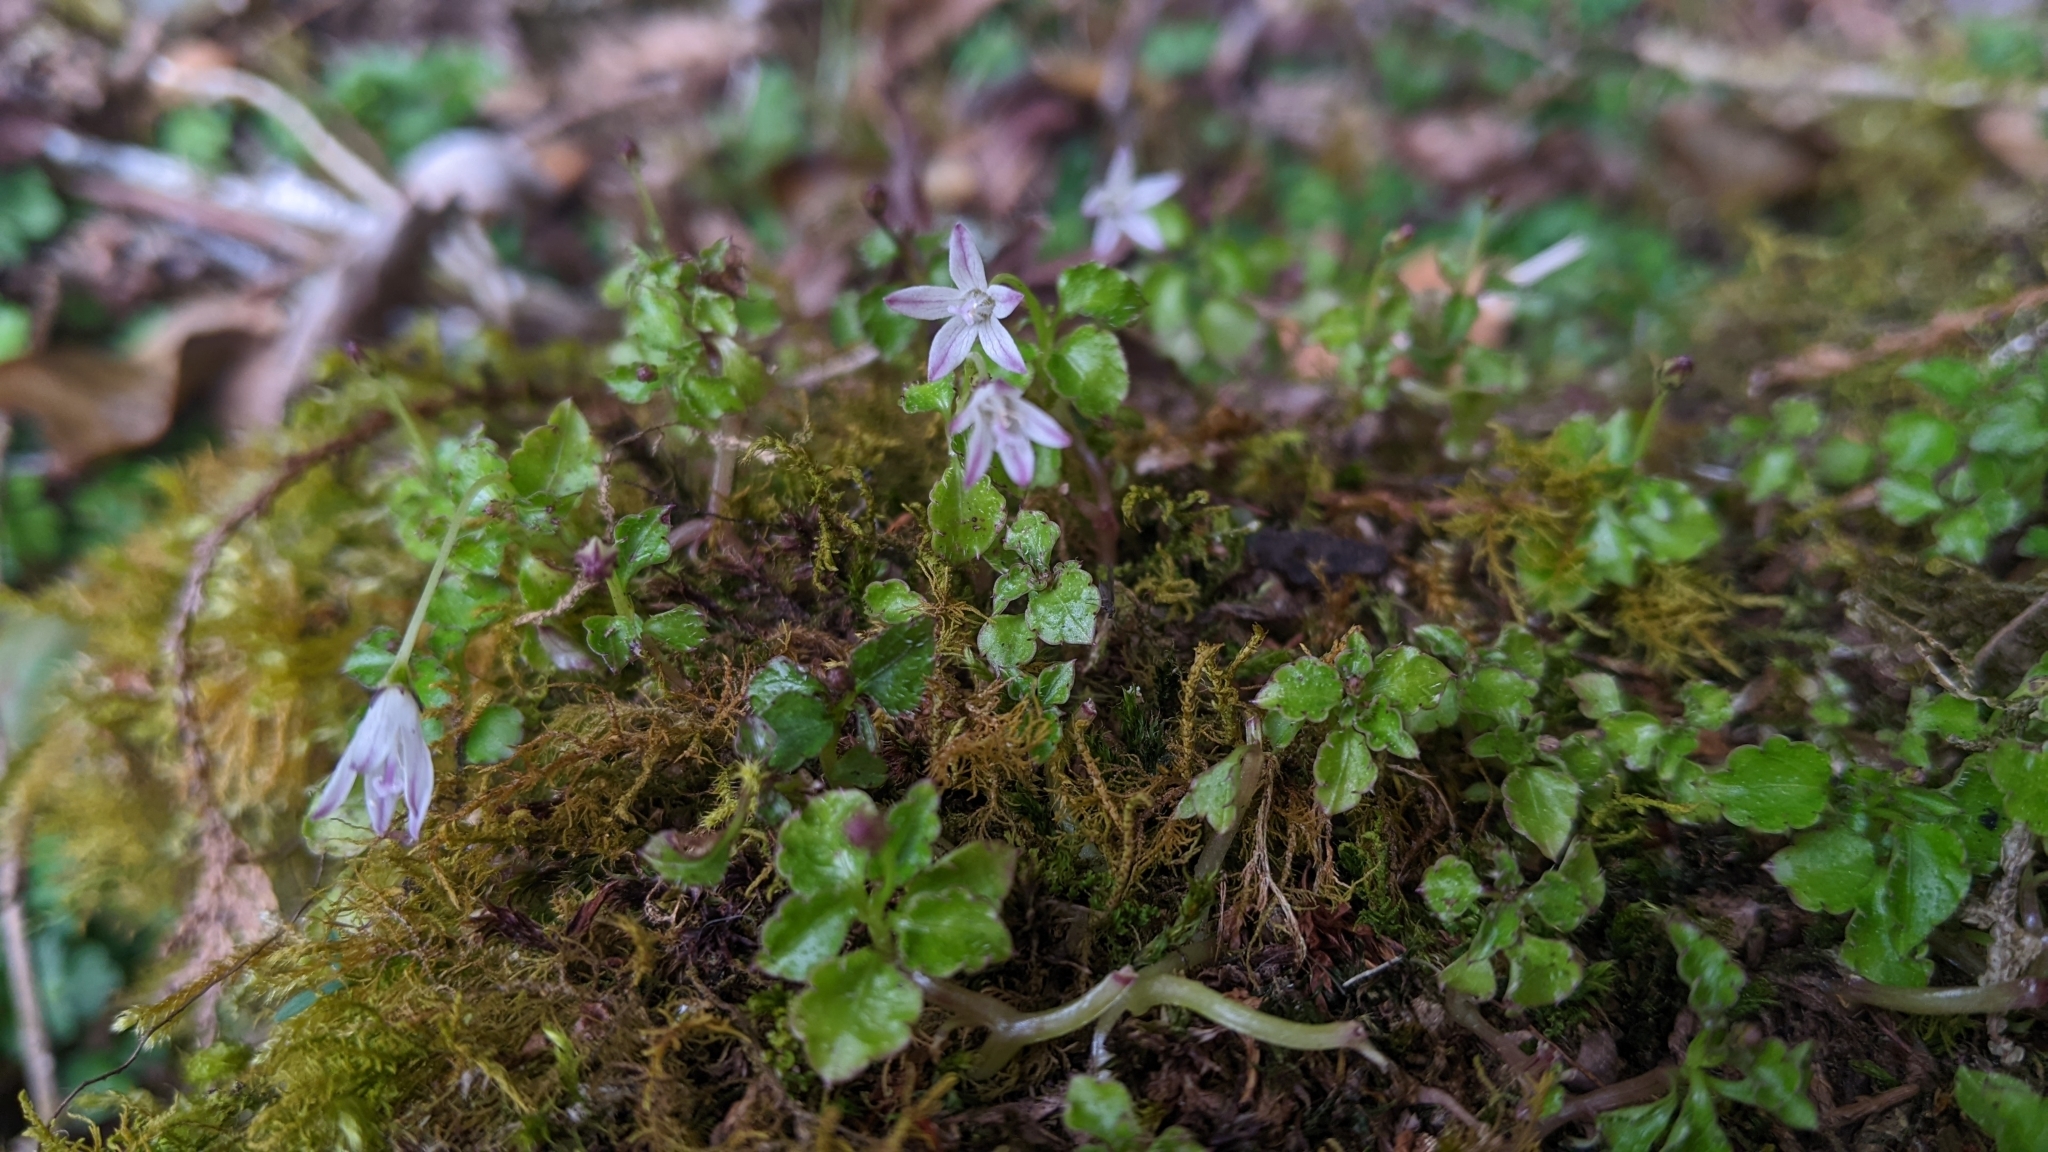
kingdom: Plantae
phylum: Tracheophyta
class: Magnoliopsida
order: Asterales
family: Campanulaceae
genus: Peracarpa
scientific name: Peracarpa carnosa
